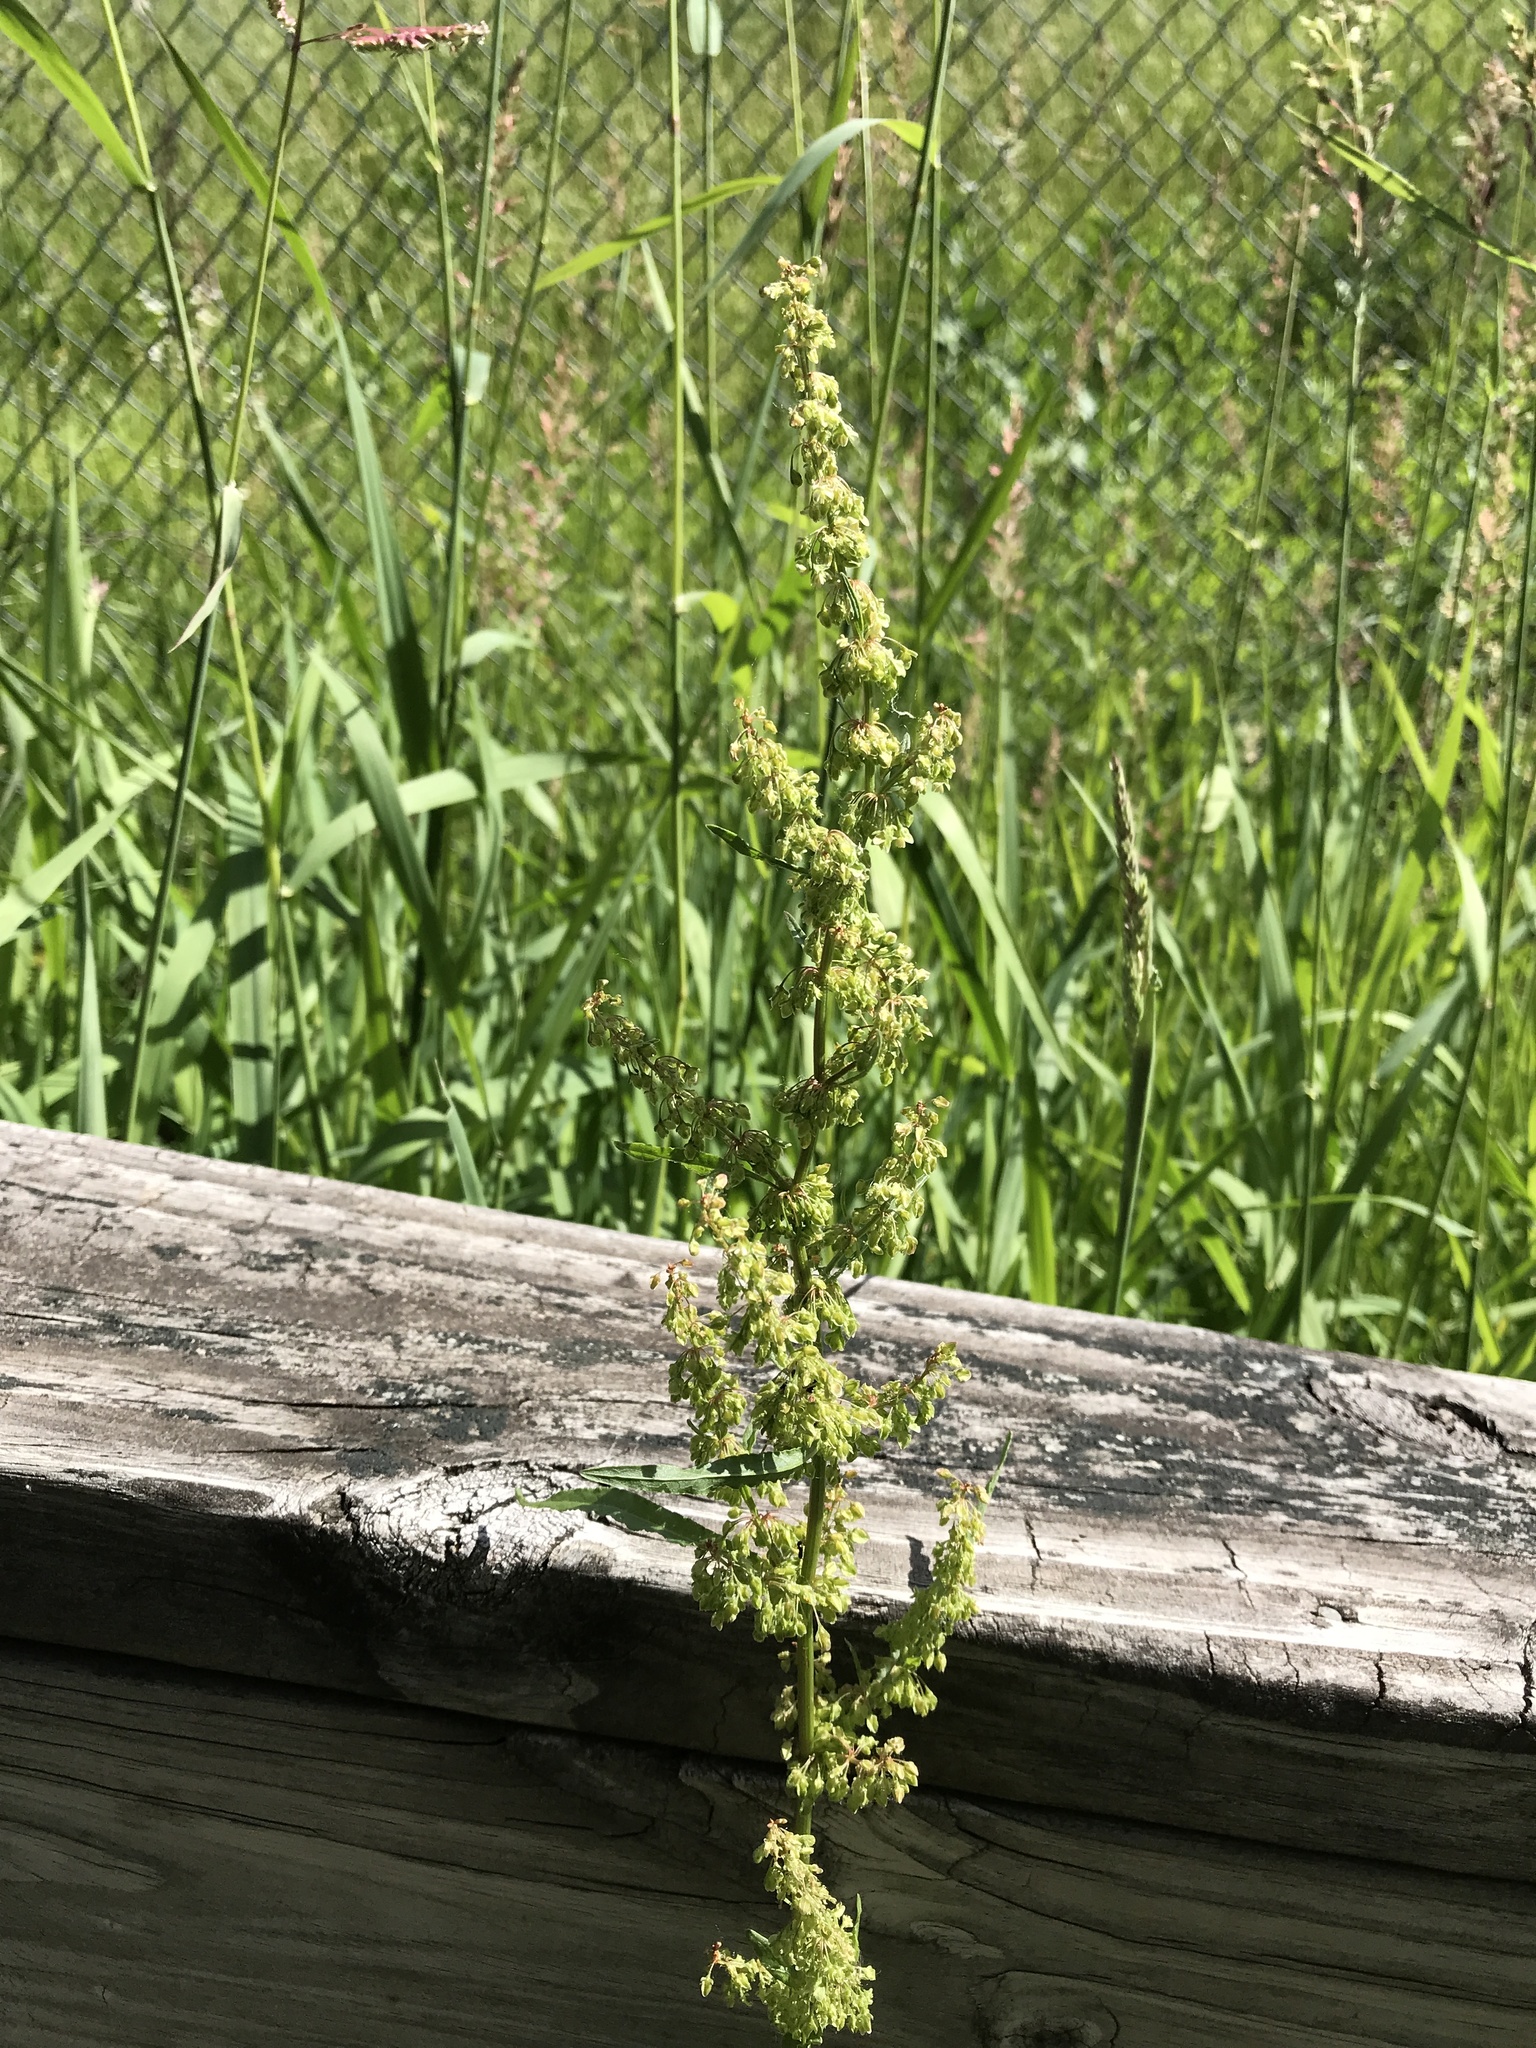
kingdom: Plantae
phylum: Tracheophyta
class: Magnoliopsida
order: Caryophyllales
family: Polygonaceae
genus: Rumex
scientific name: Rumex crispus
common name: Curled dock
